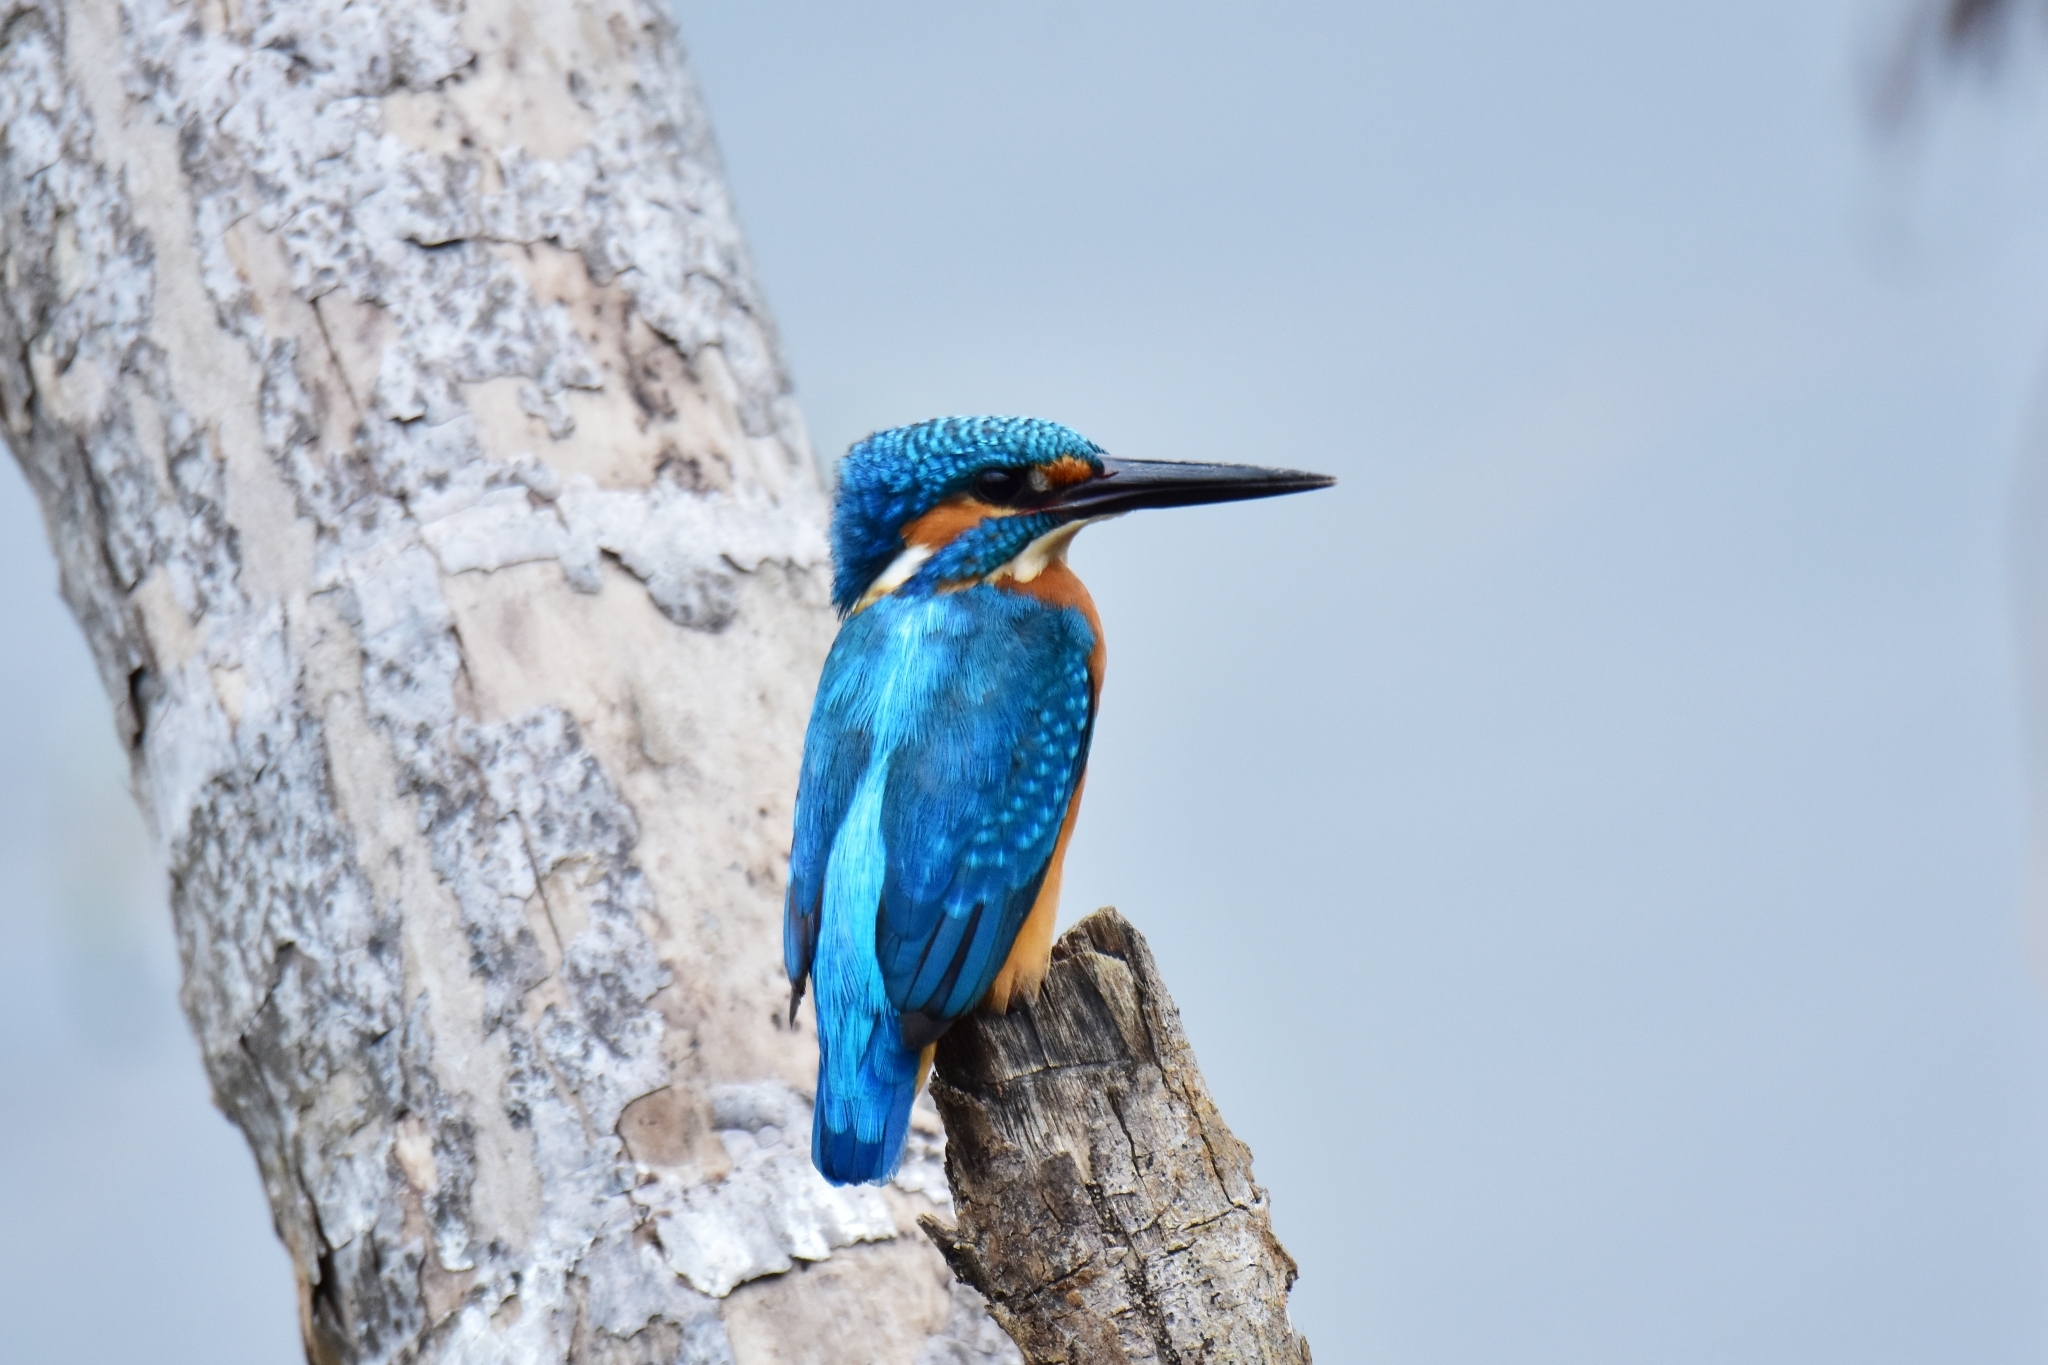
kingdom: Animalia
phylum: Chordata
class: Aves
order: Coraciiformes
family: Alcedinidae
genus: Alcedo
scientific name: Alcedo atthis
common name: Common kingfisher
